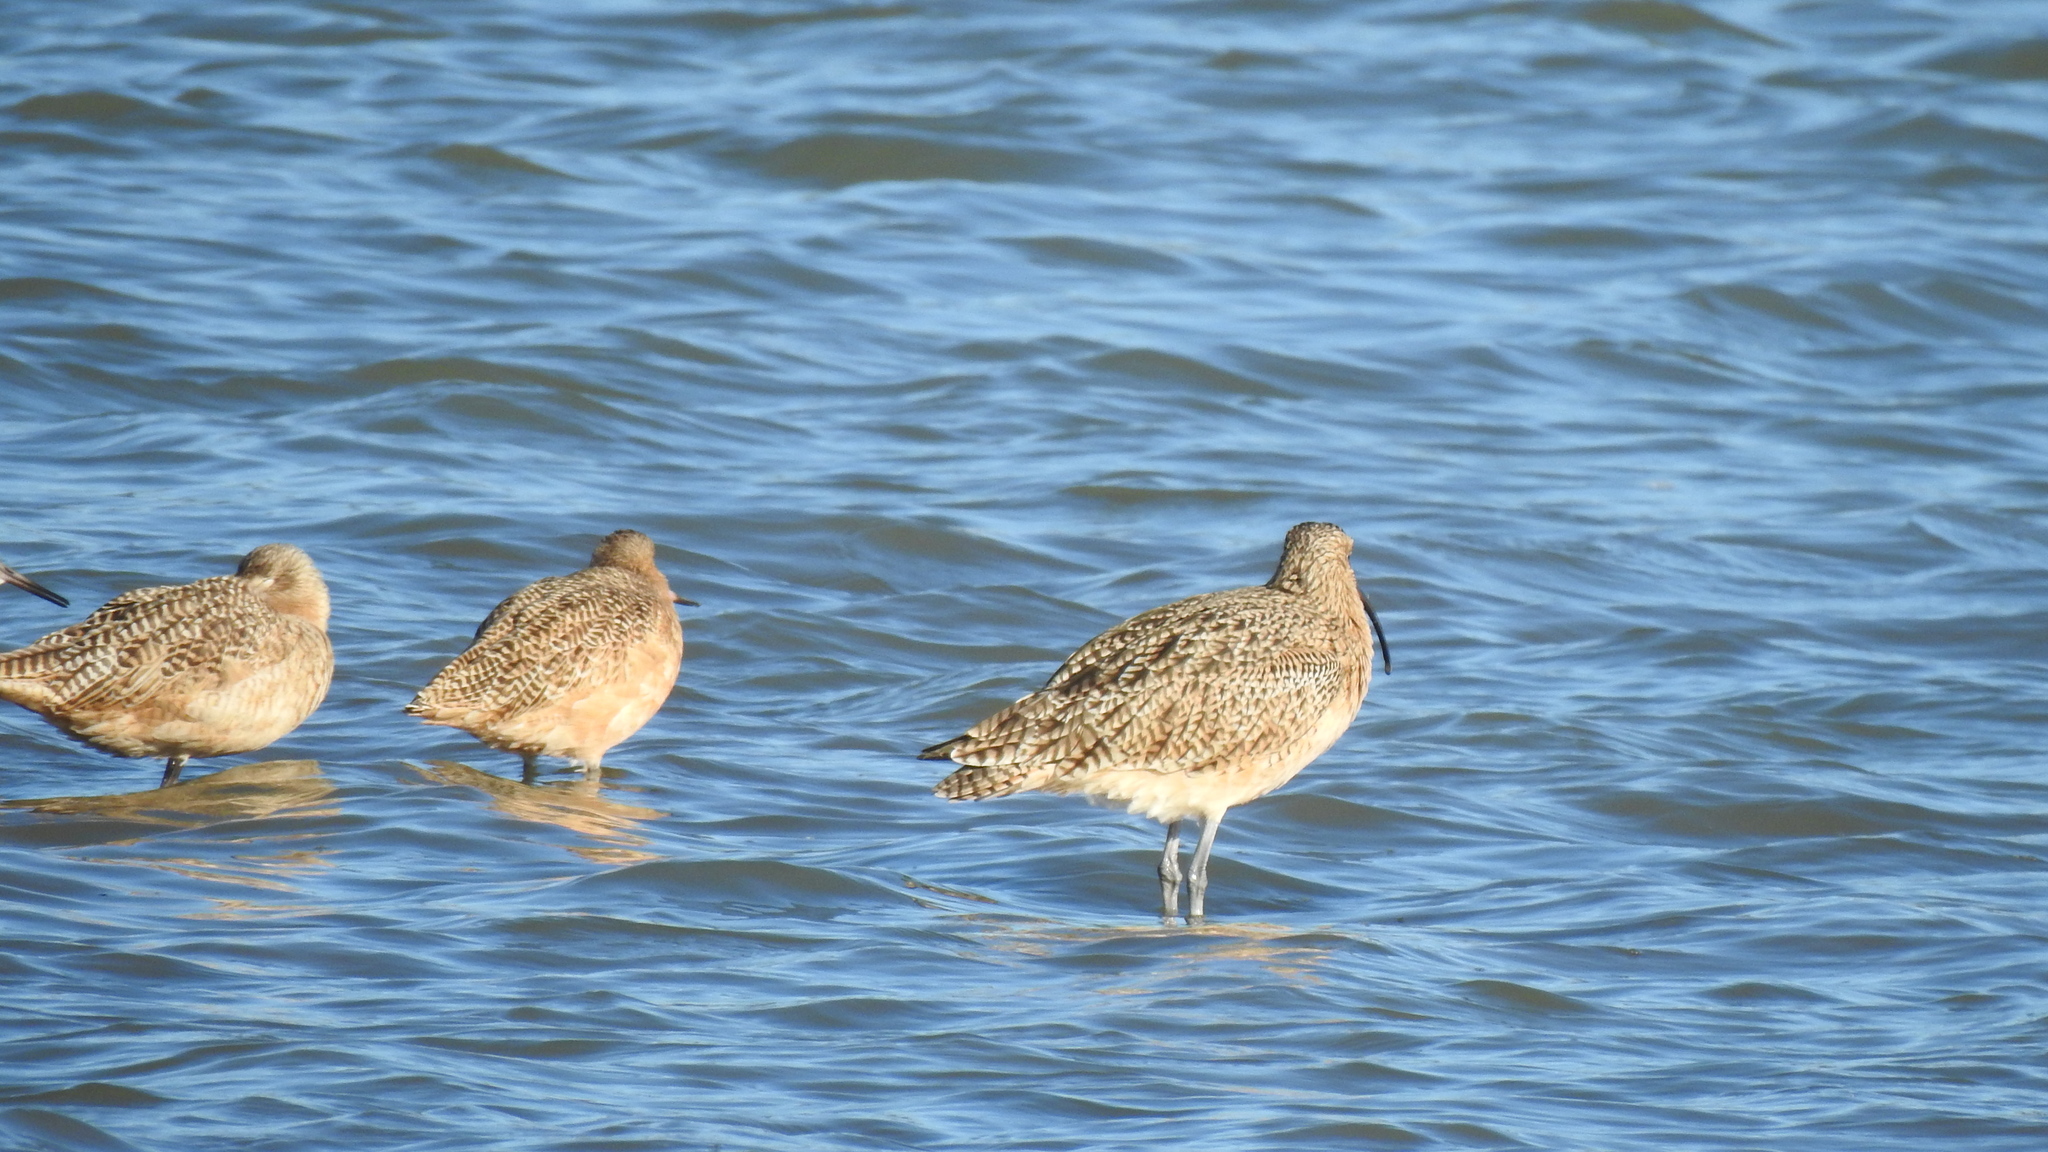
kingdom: Animalia
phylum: Chordata
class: Aves
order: Charadriiformes
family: Scolopacidae
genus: Limosa
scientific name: Limosa fedoa
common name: Marbled godwit
